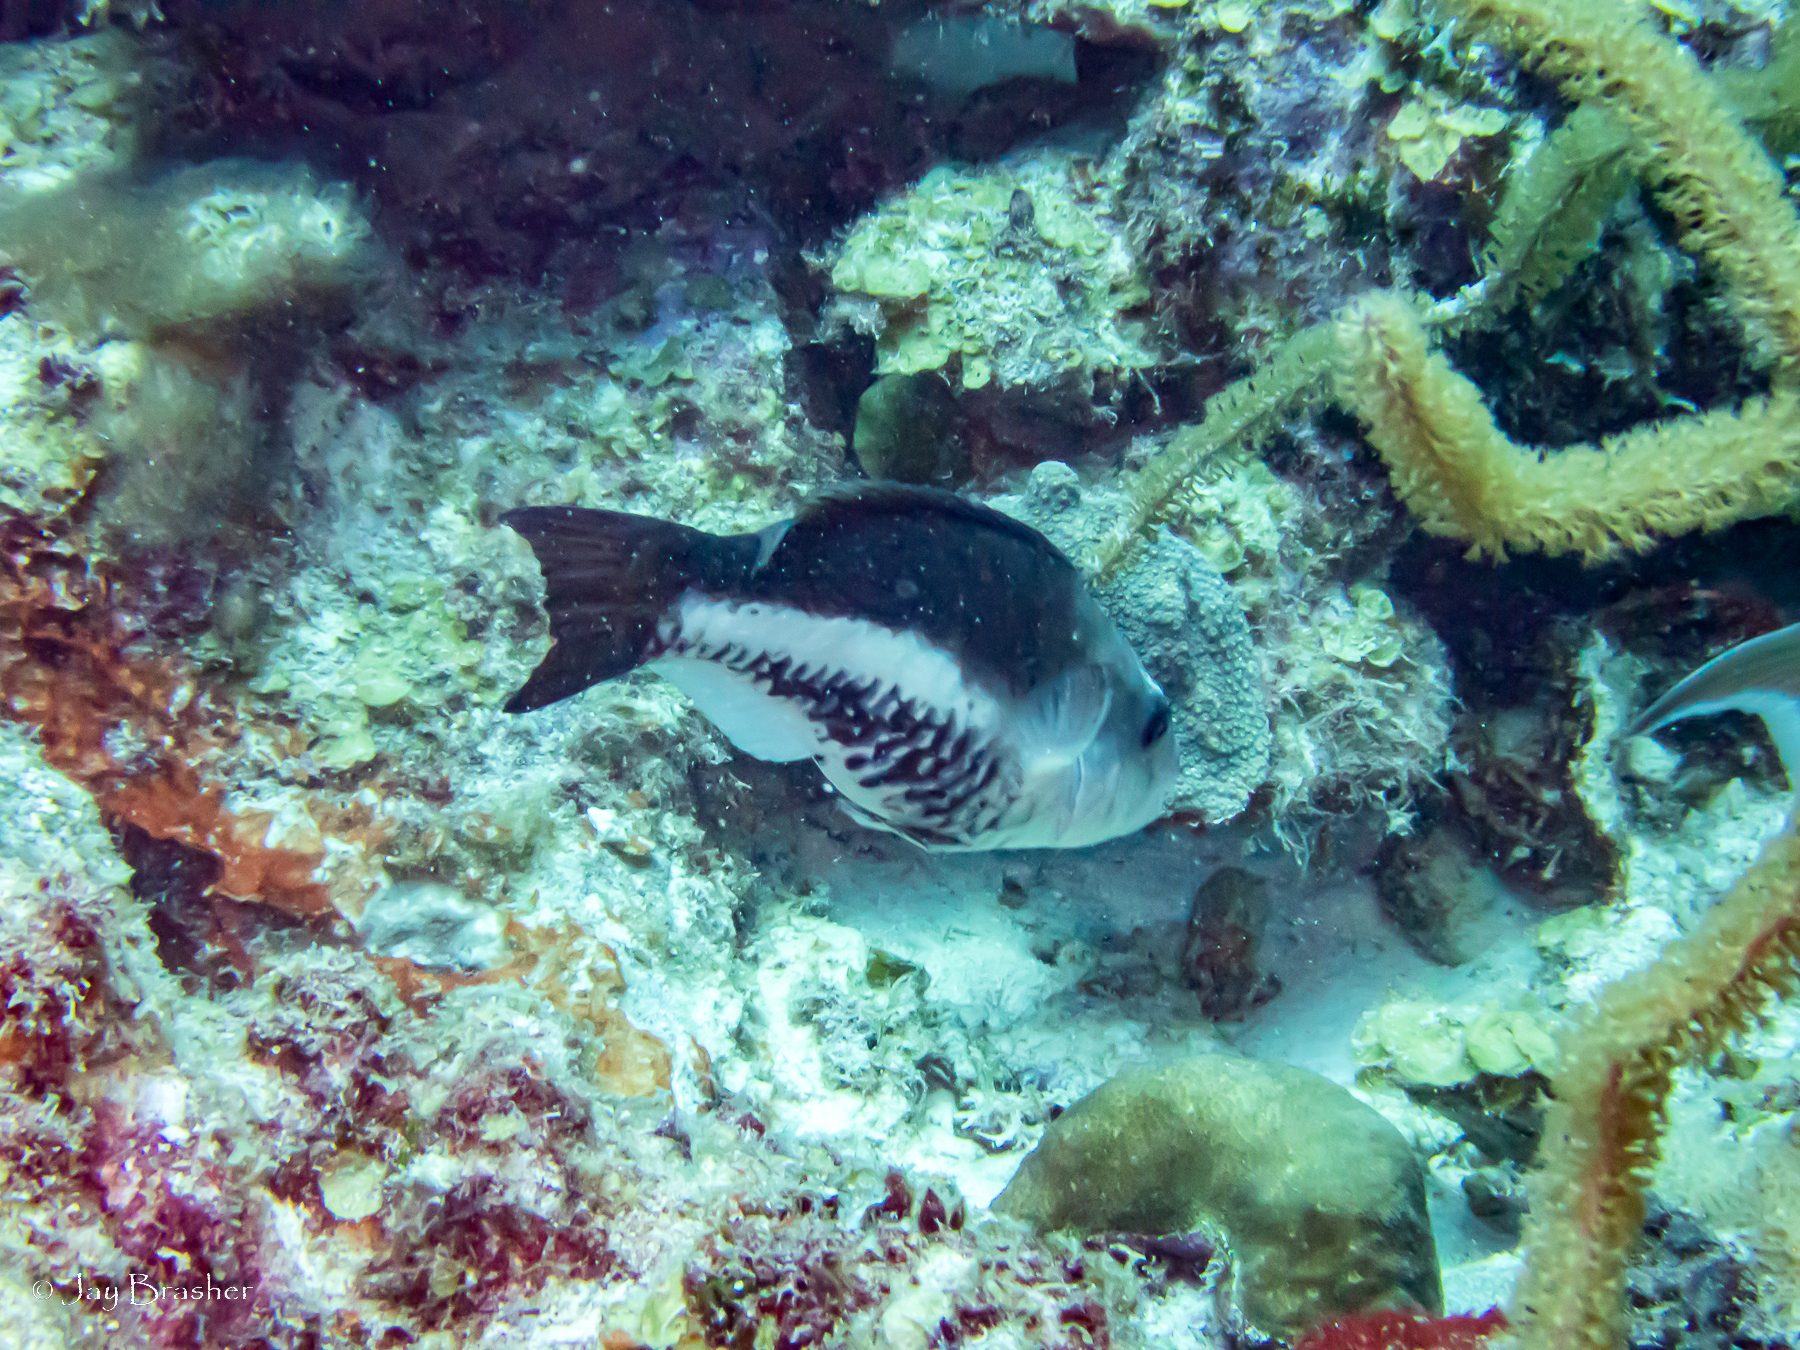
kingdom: Animalia
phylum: Chordata
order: Perciformes
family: Scaridae
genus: Scarus
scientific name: Scarus vetula
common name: Queen parrotfish
